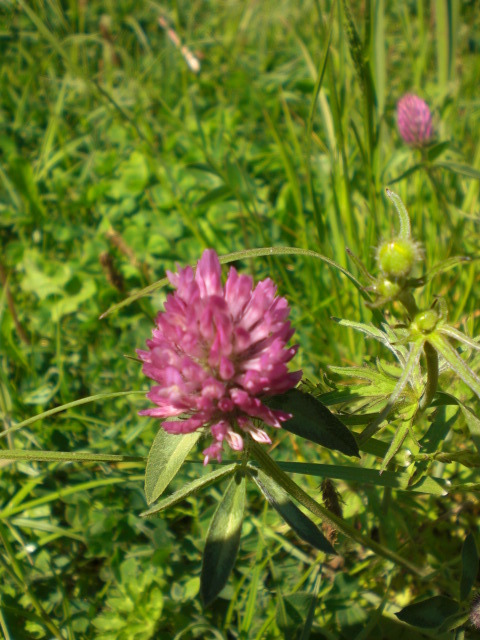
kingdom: Plantae
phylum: Tracheophyta
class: Magnoliopsida
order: Fabales
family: Fabaceae
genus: Trifolium
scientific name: Trifolium pratense
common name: Red clover
